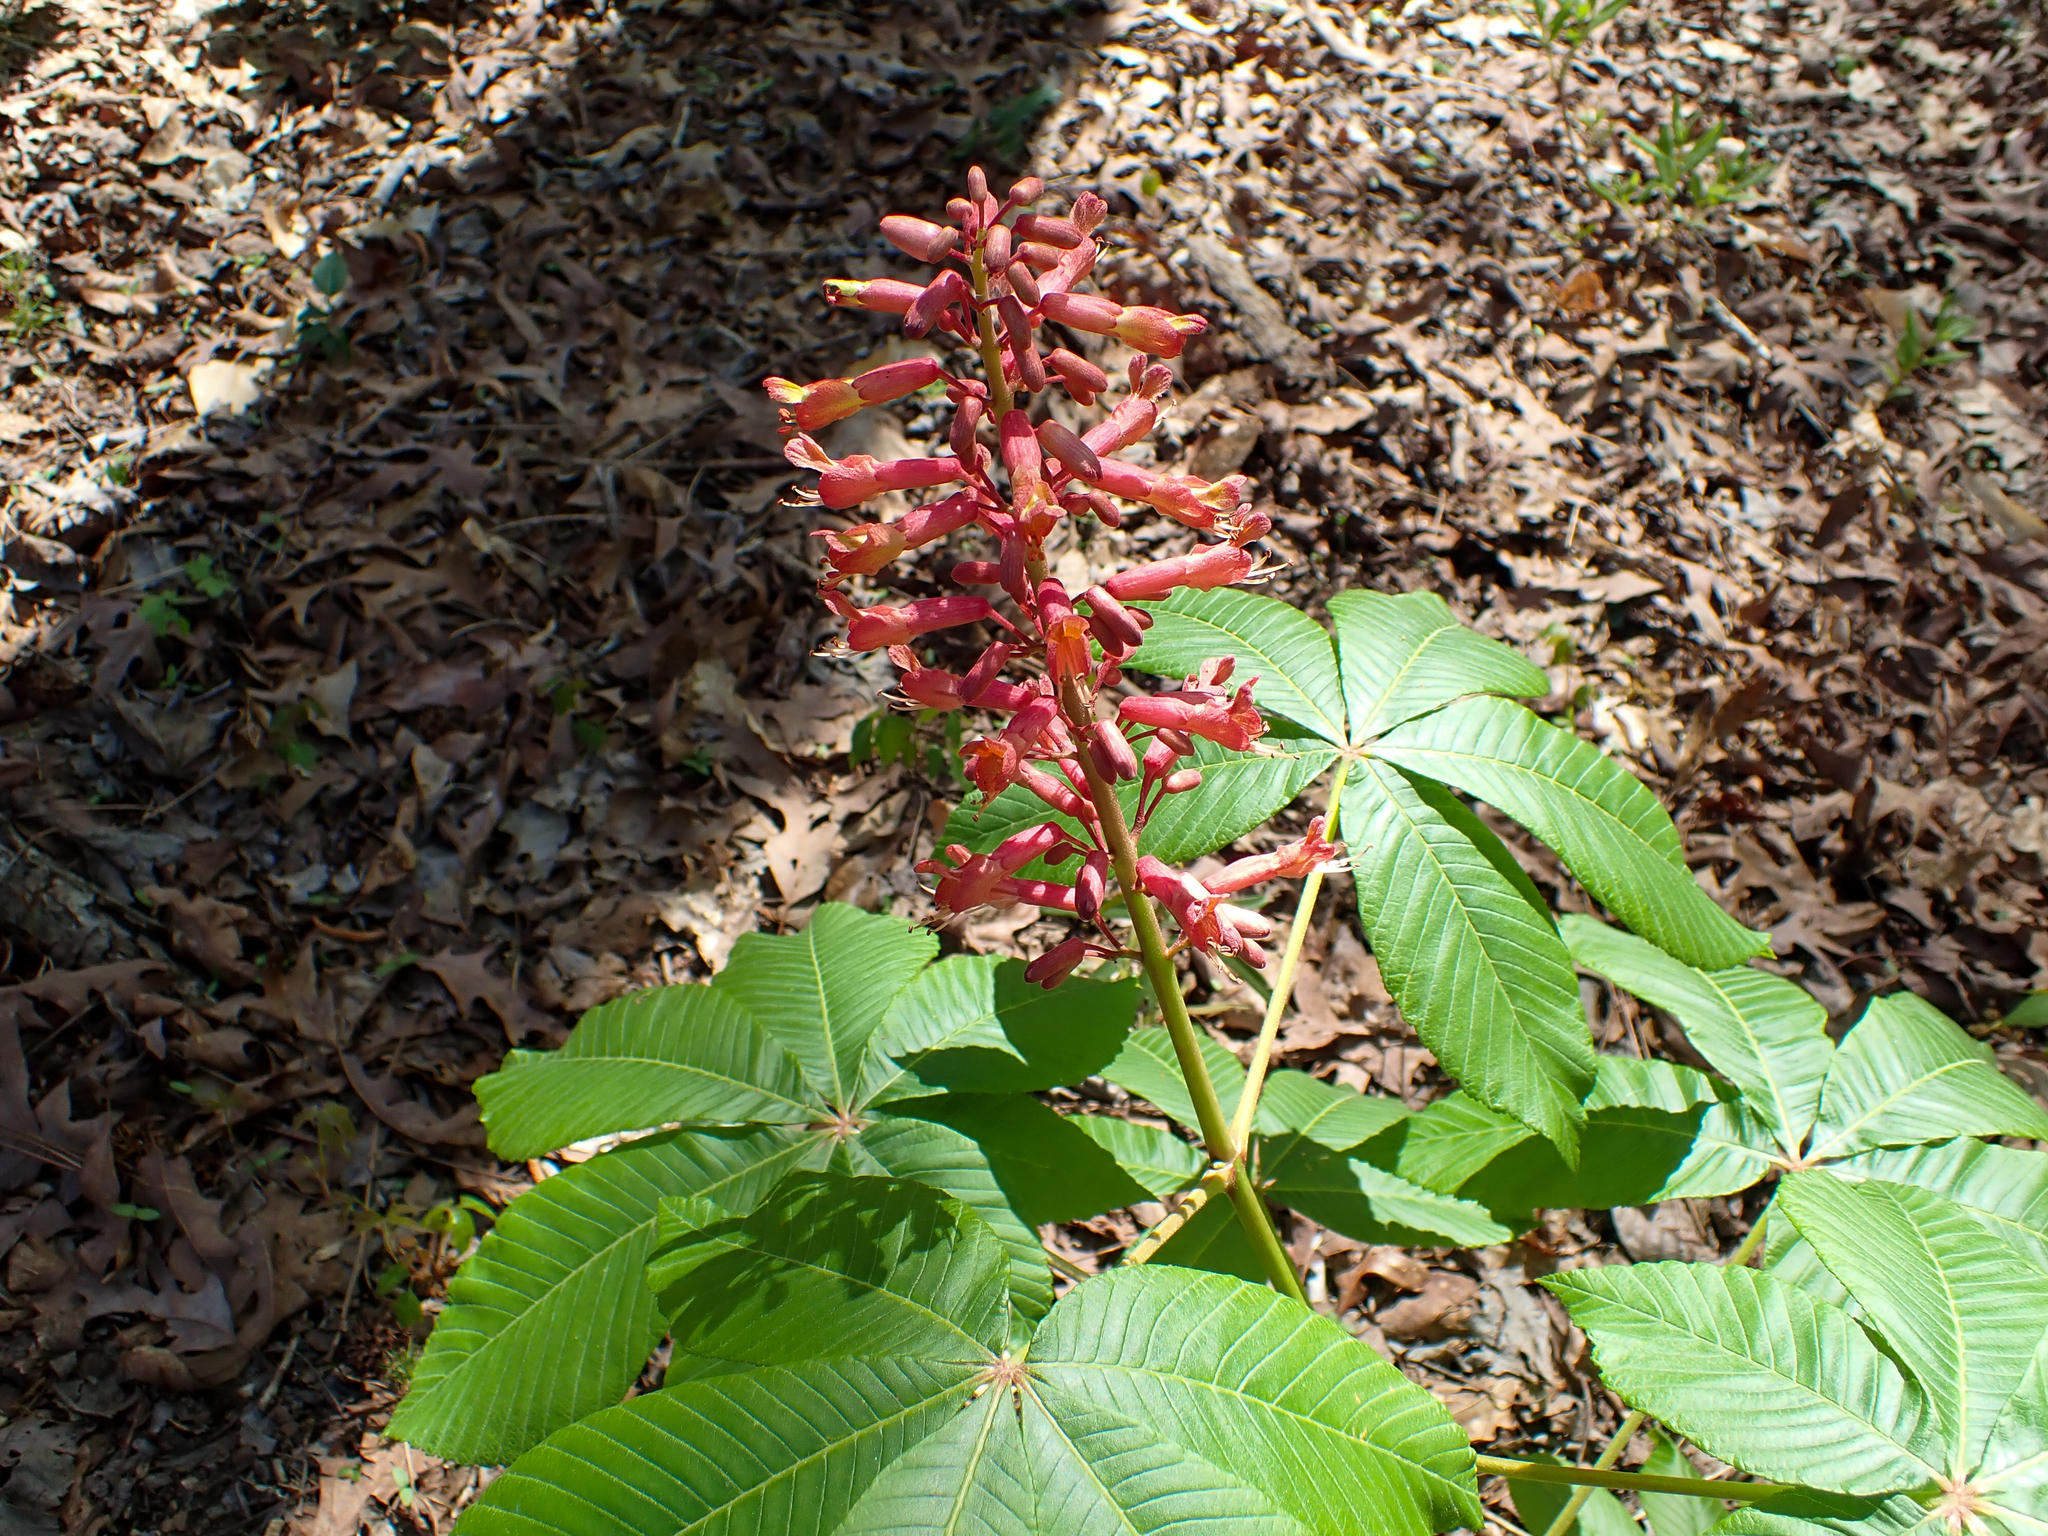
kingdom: Plantae
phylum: Tracheophyta
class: Magnoliopsida
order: Sapindales
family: Sapindaceae
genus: Aesculus
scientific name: Aesculus pavia
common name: Red buckeye
